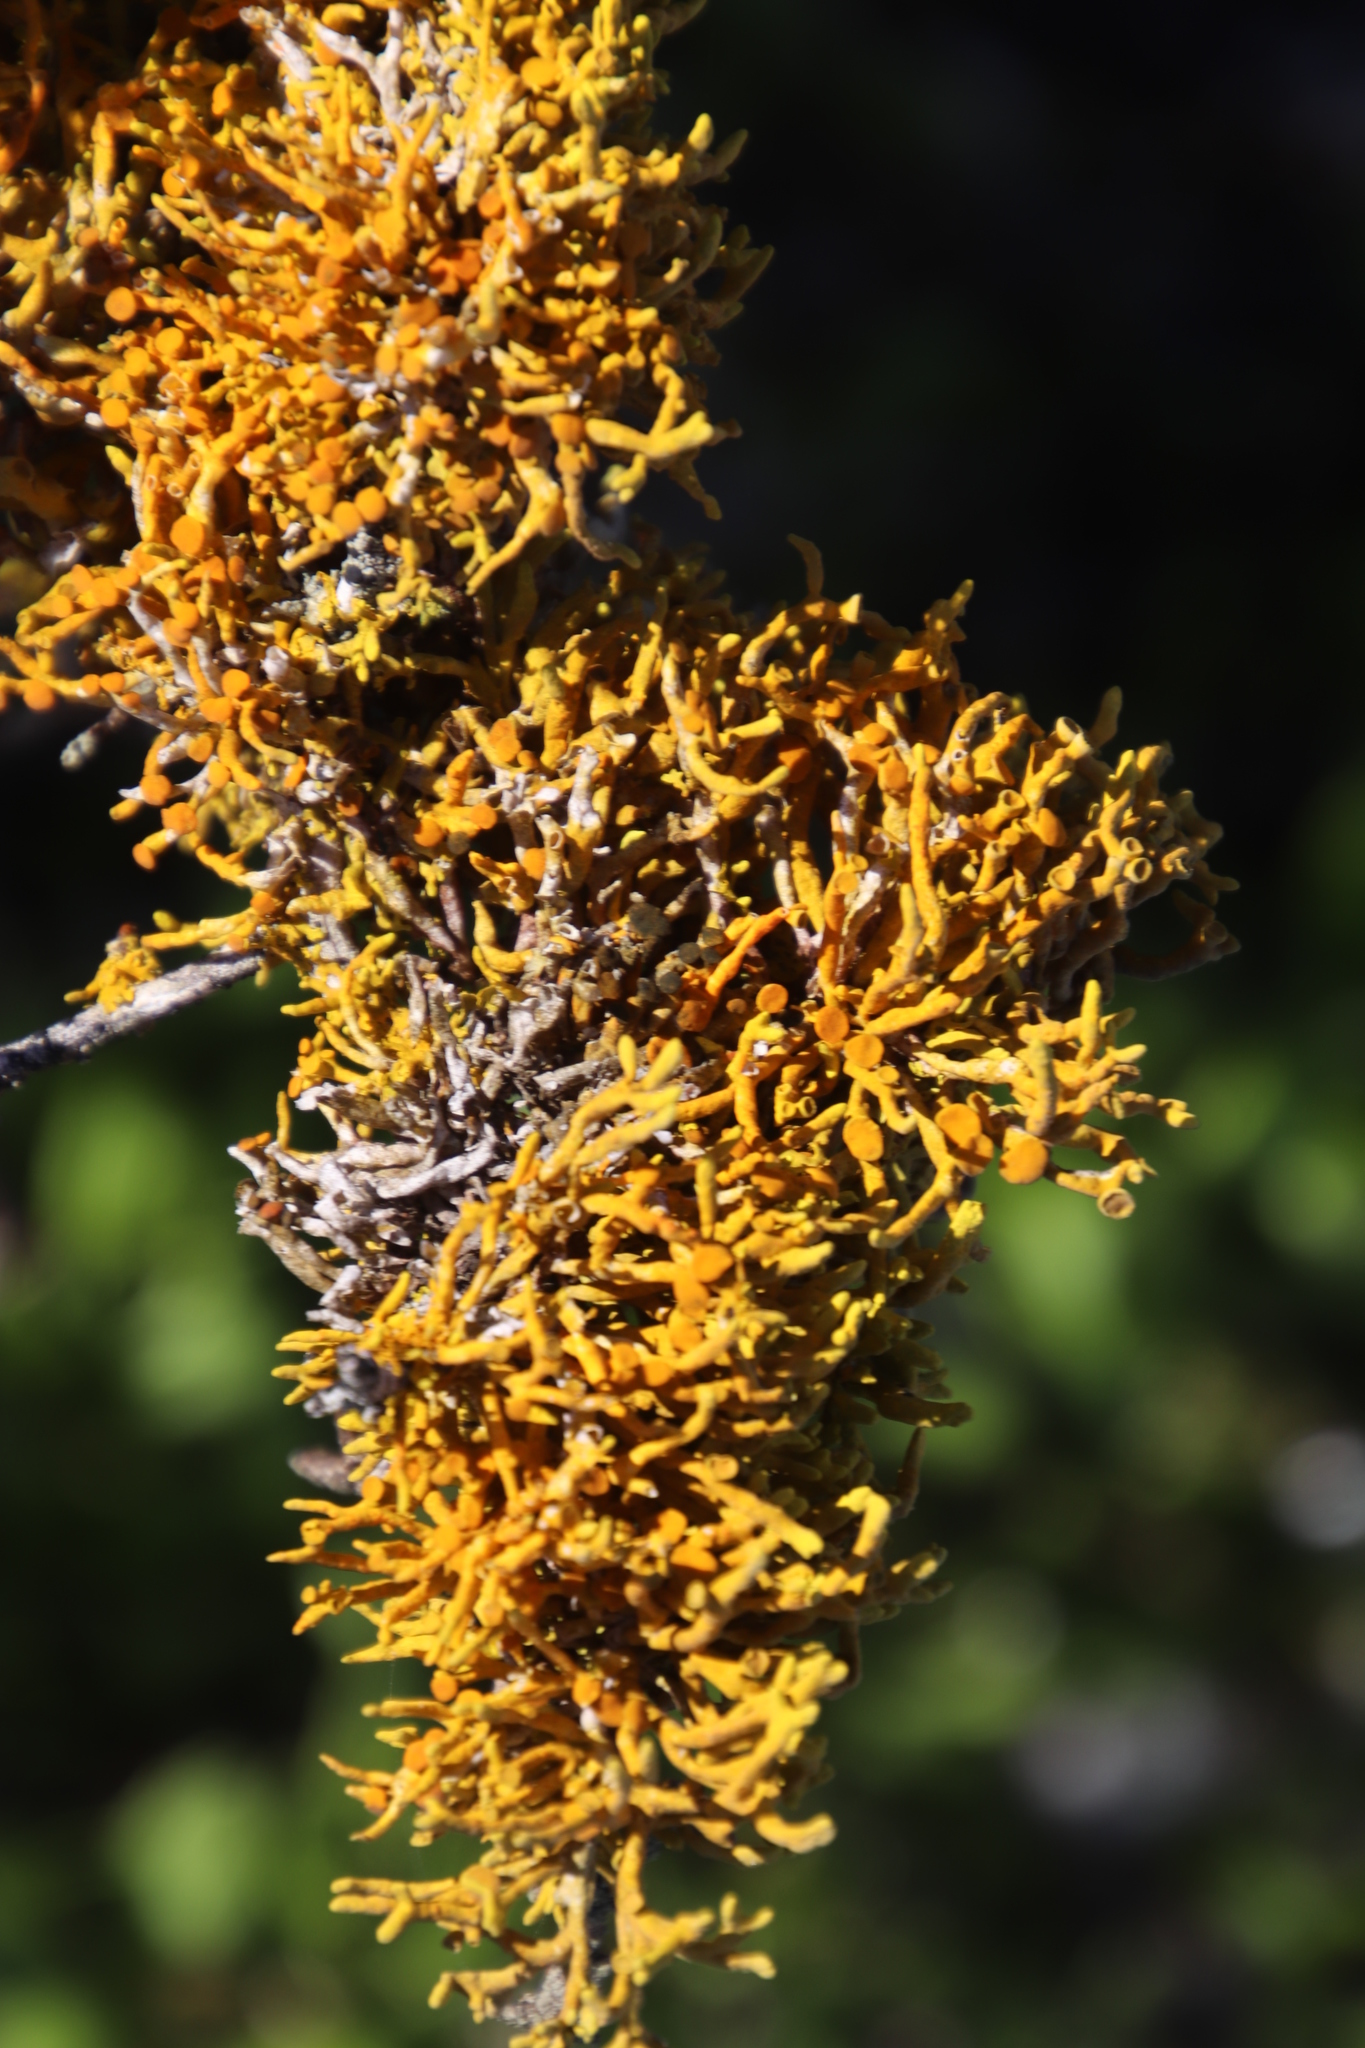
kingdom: Fungi
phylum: Ascomycota
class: Lecanoromycetes
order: Teloschistales
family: Teloschistaceae
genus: Dufourea
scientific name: Dufourea flammea
